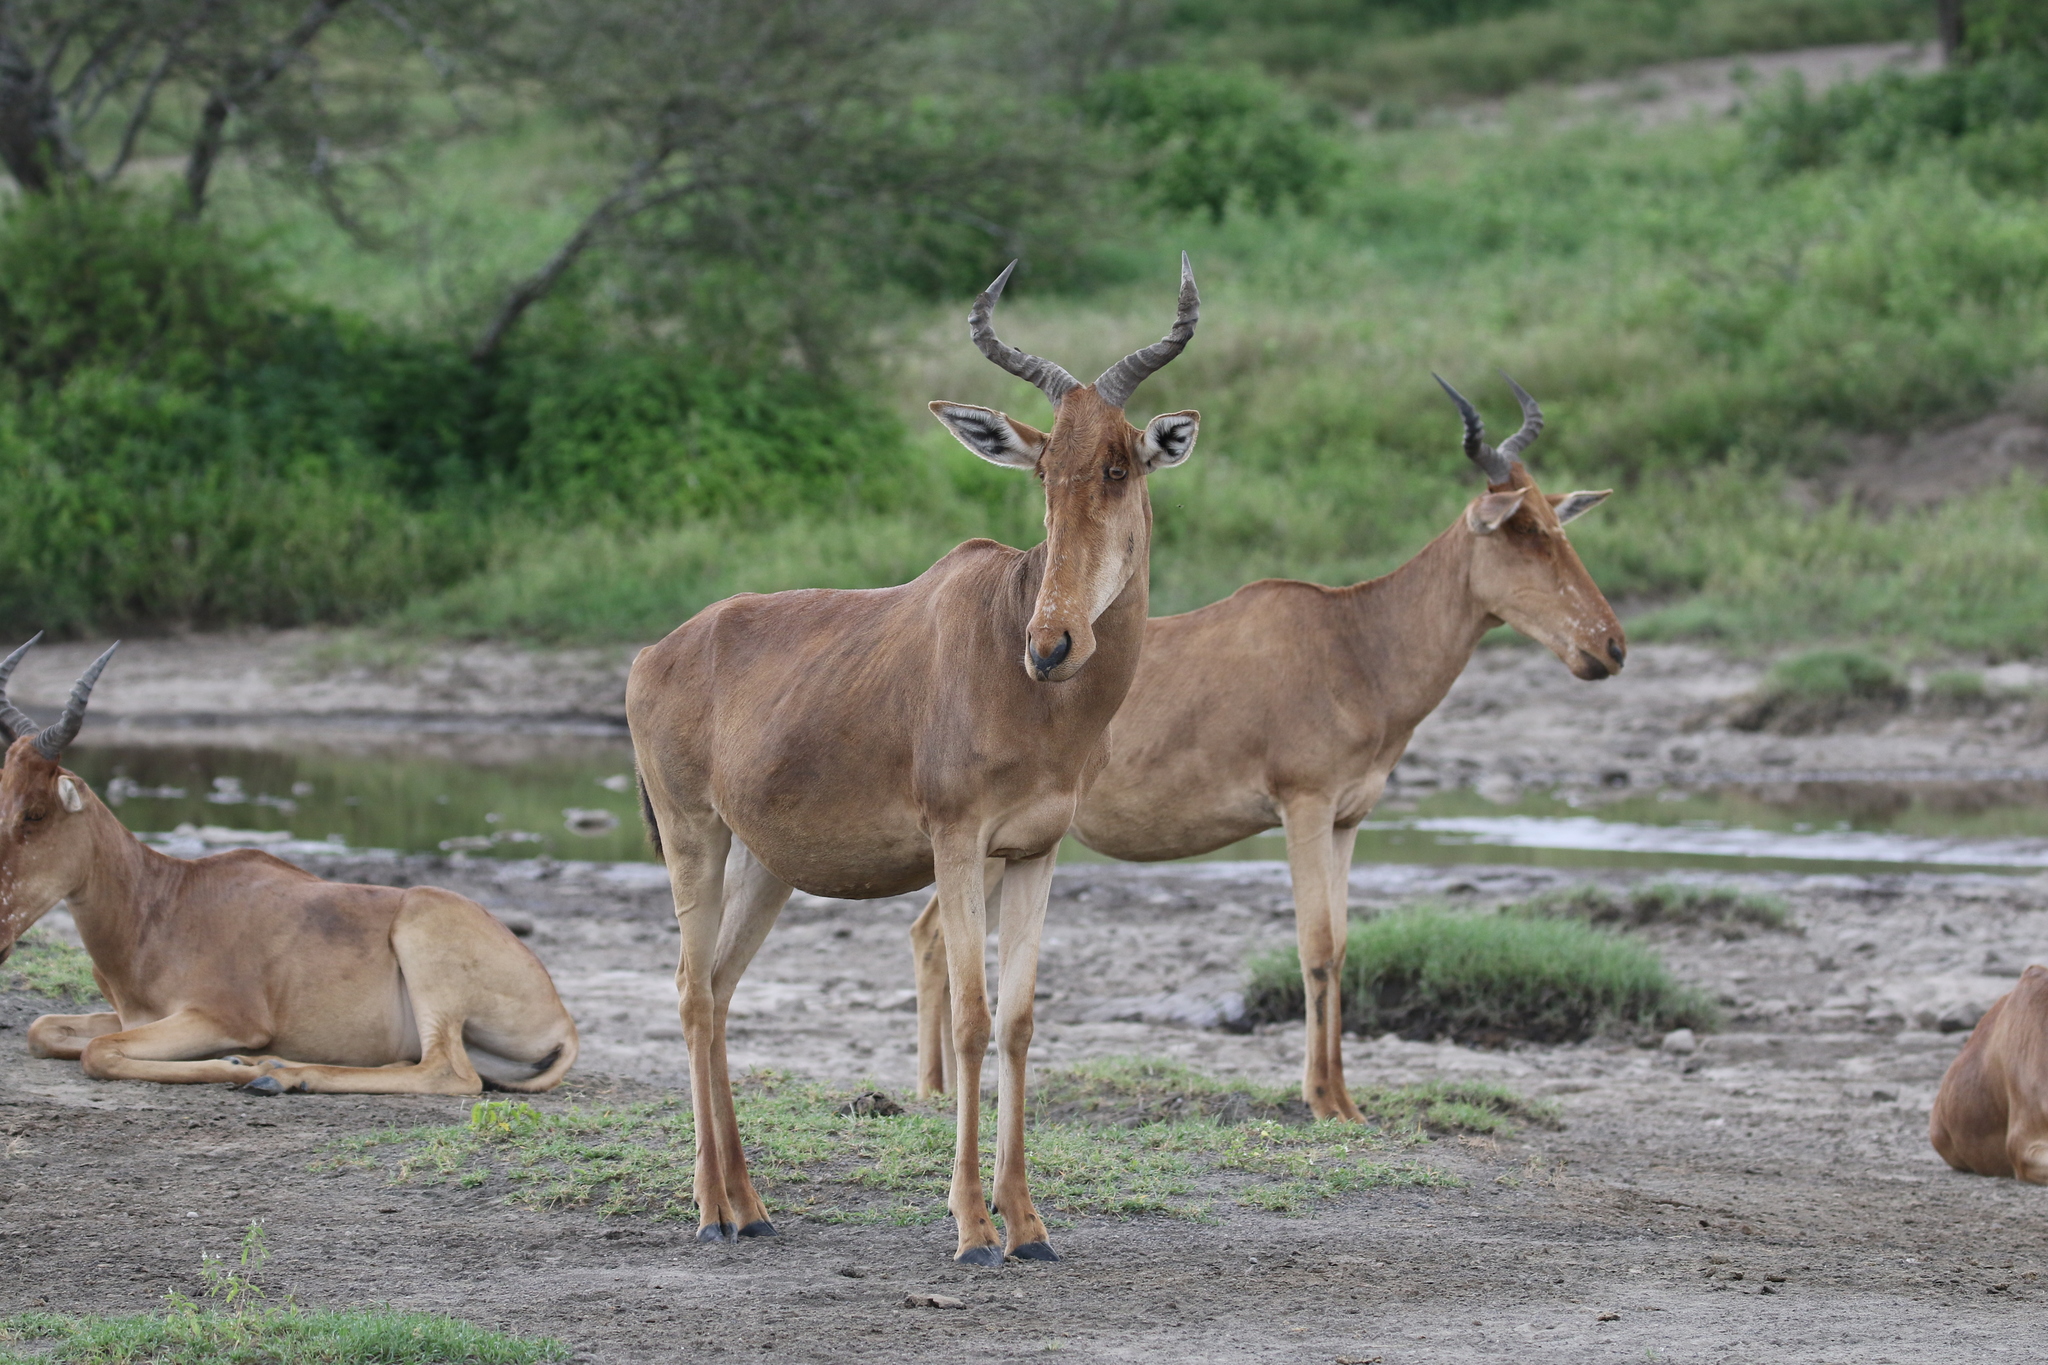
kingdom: Animalia
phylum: Chordata
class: Mammalia
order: Artiodactyla
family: Bovidae
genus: Alcelaphus
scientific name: Alcelaphus buselaphus
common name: Hartebeest
